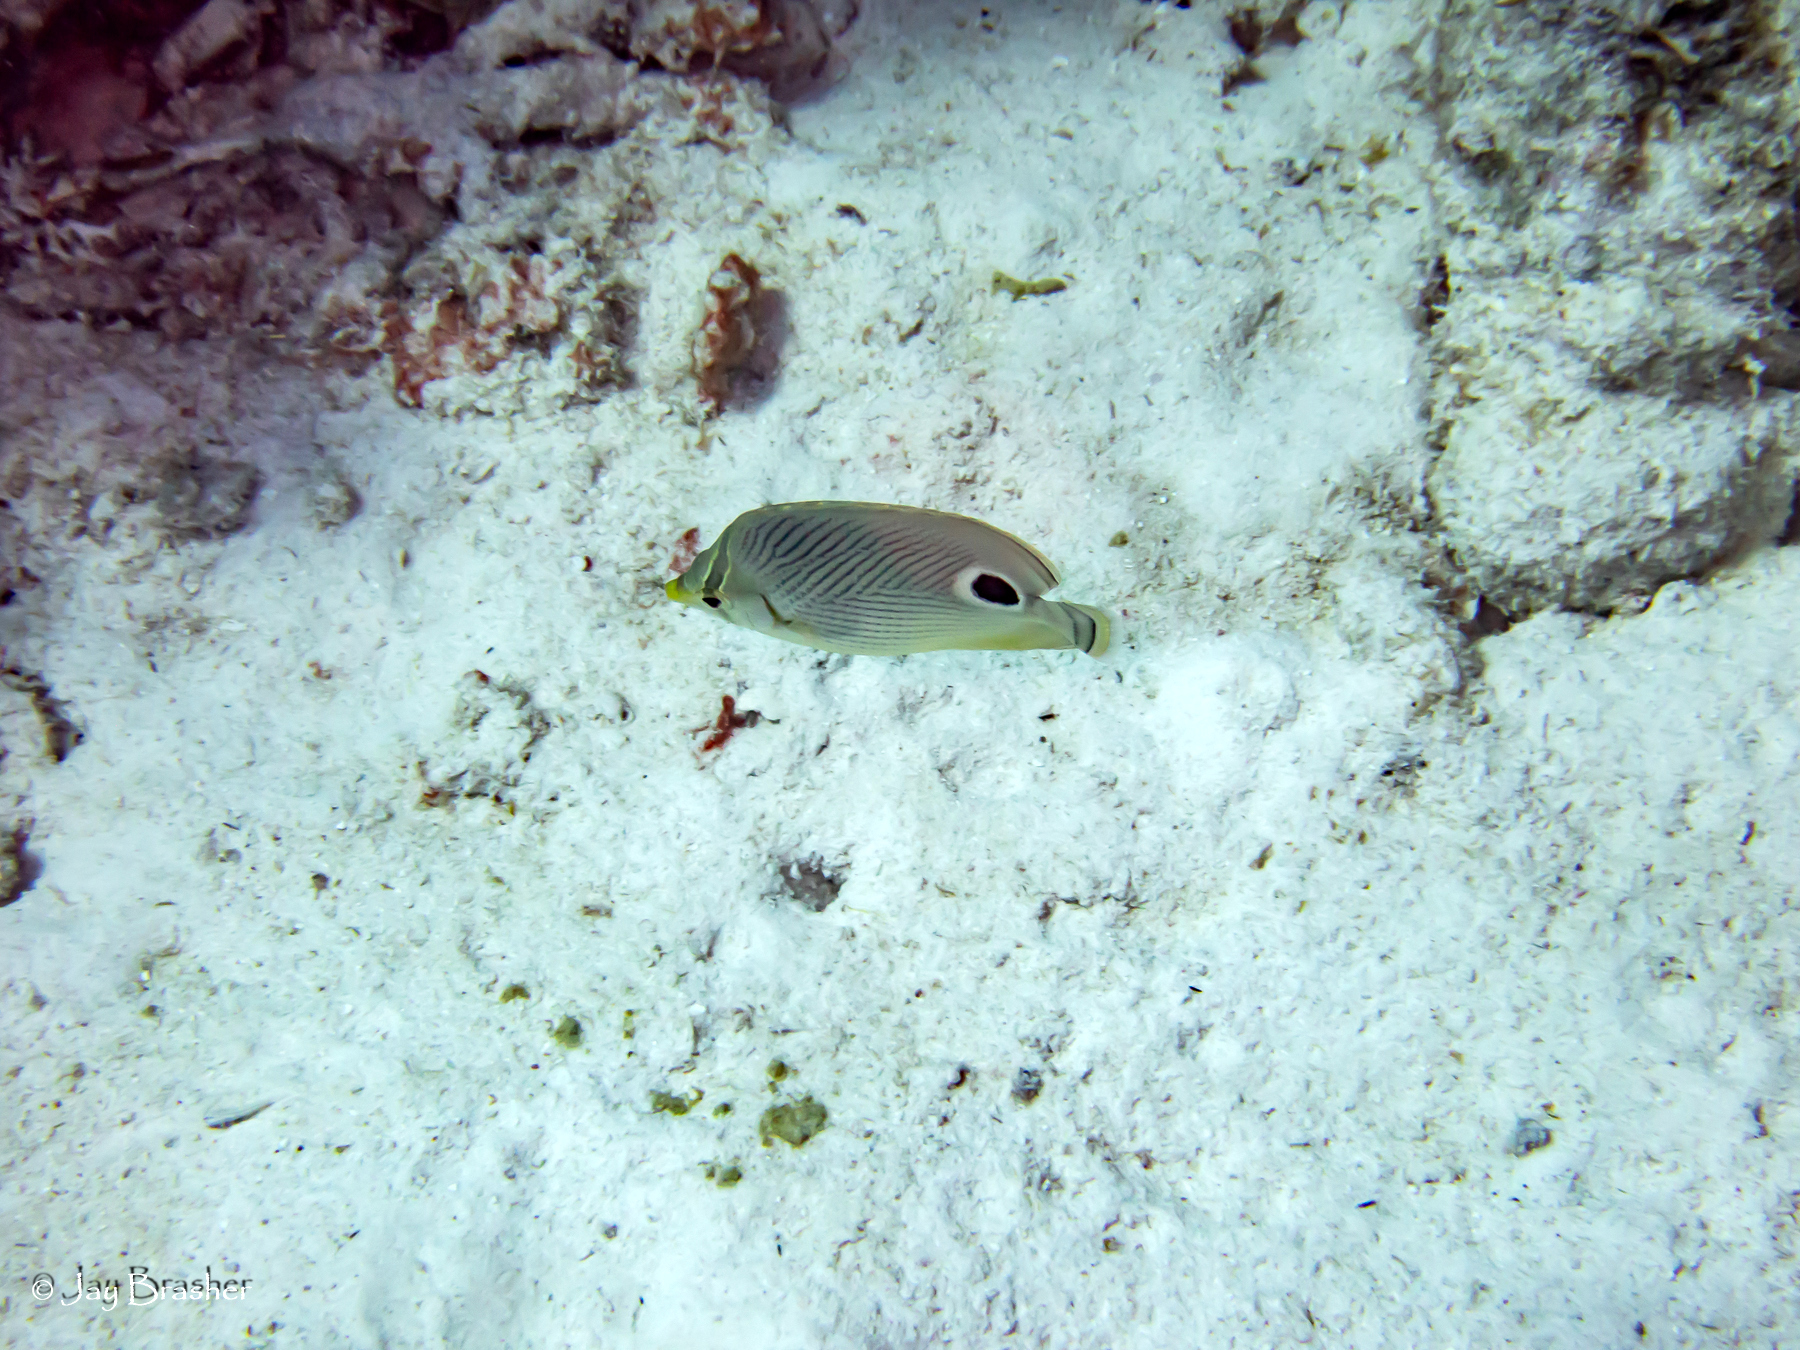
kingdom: Animalia
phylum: Chordata
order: Perciformes
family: Chaetodontidae
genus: Chaetodon
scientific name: Chaetodon capistratus
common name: Kete
